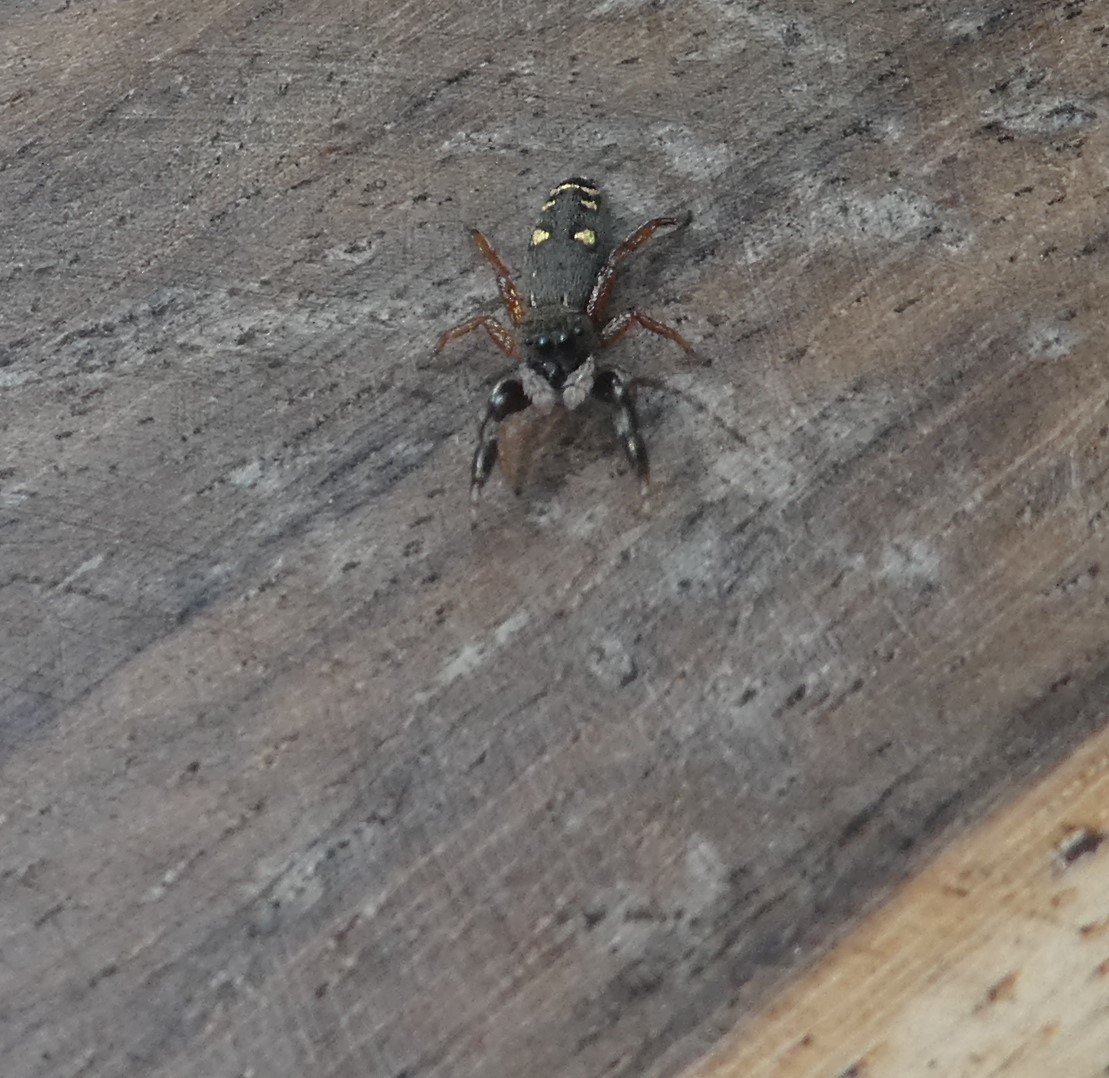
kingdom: Animalia
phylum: Arthropoda
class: Arachnida
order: Araneae
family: Salticidae
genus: Metacyrba
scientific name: Metacyrba punctata
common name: Jumping spiders
